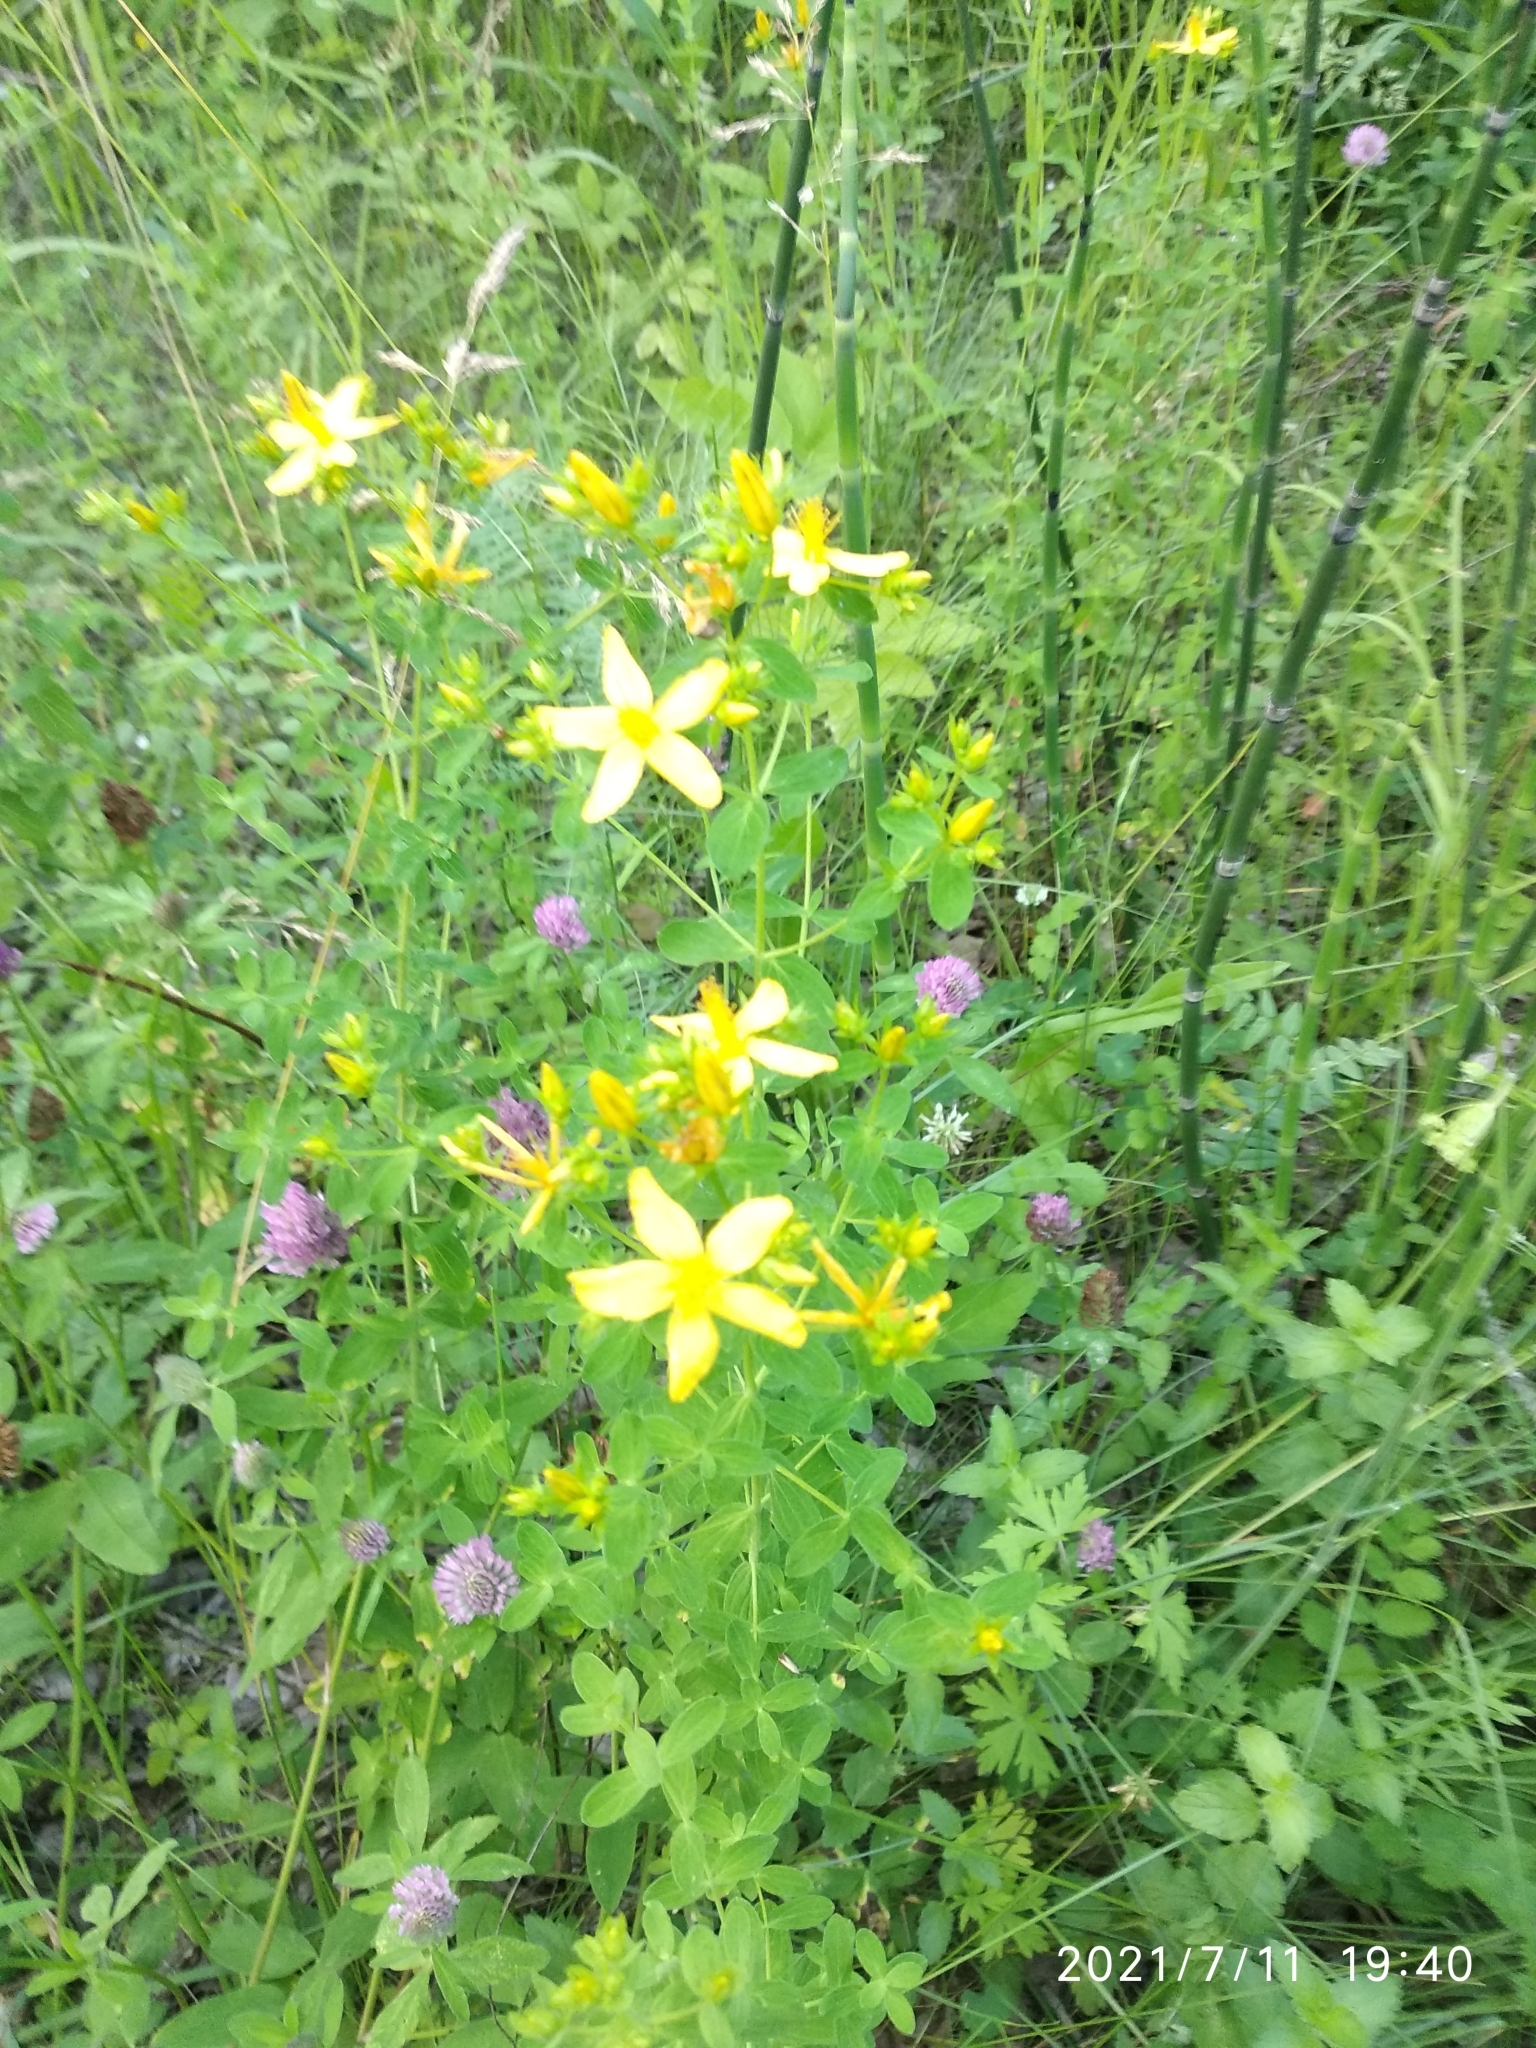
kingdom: Plantae
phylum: Tracheophyta
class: Magnoliopsida
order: Malpighiales
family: Hypericaceae
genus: Hypericum
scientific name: Hypericum perforatum
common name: Common st. johnswort
